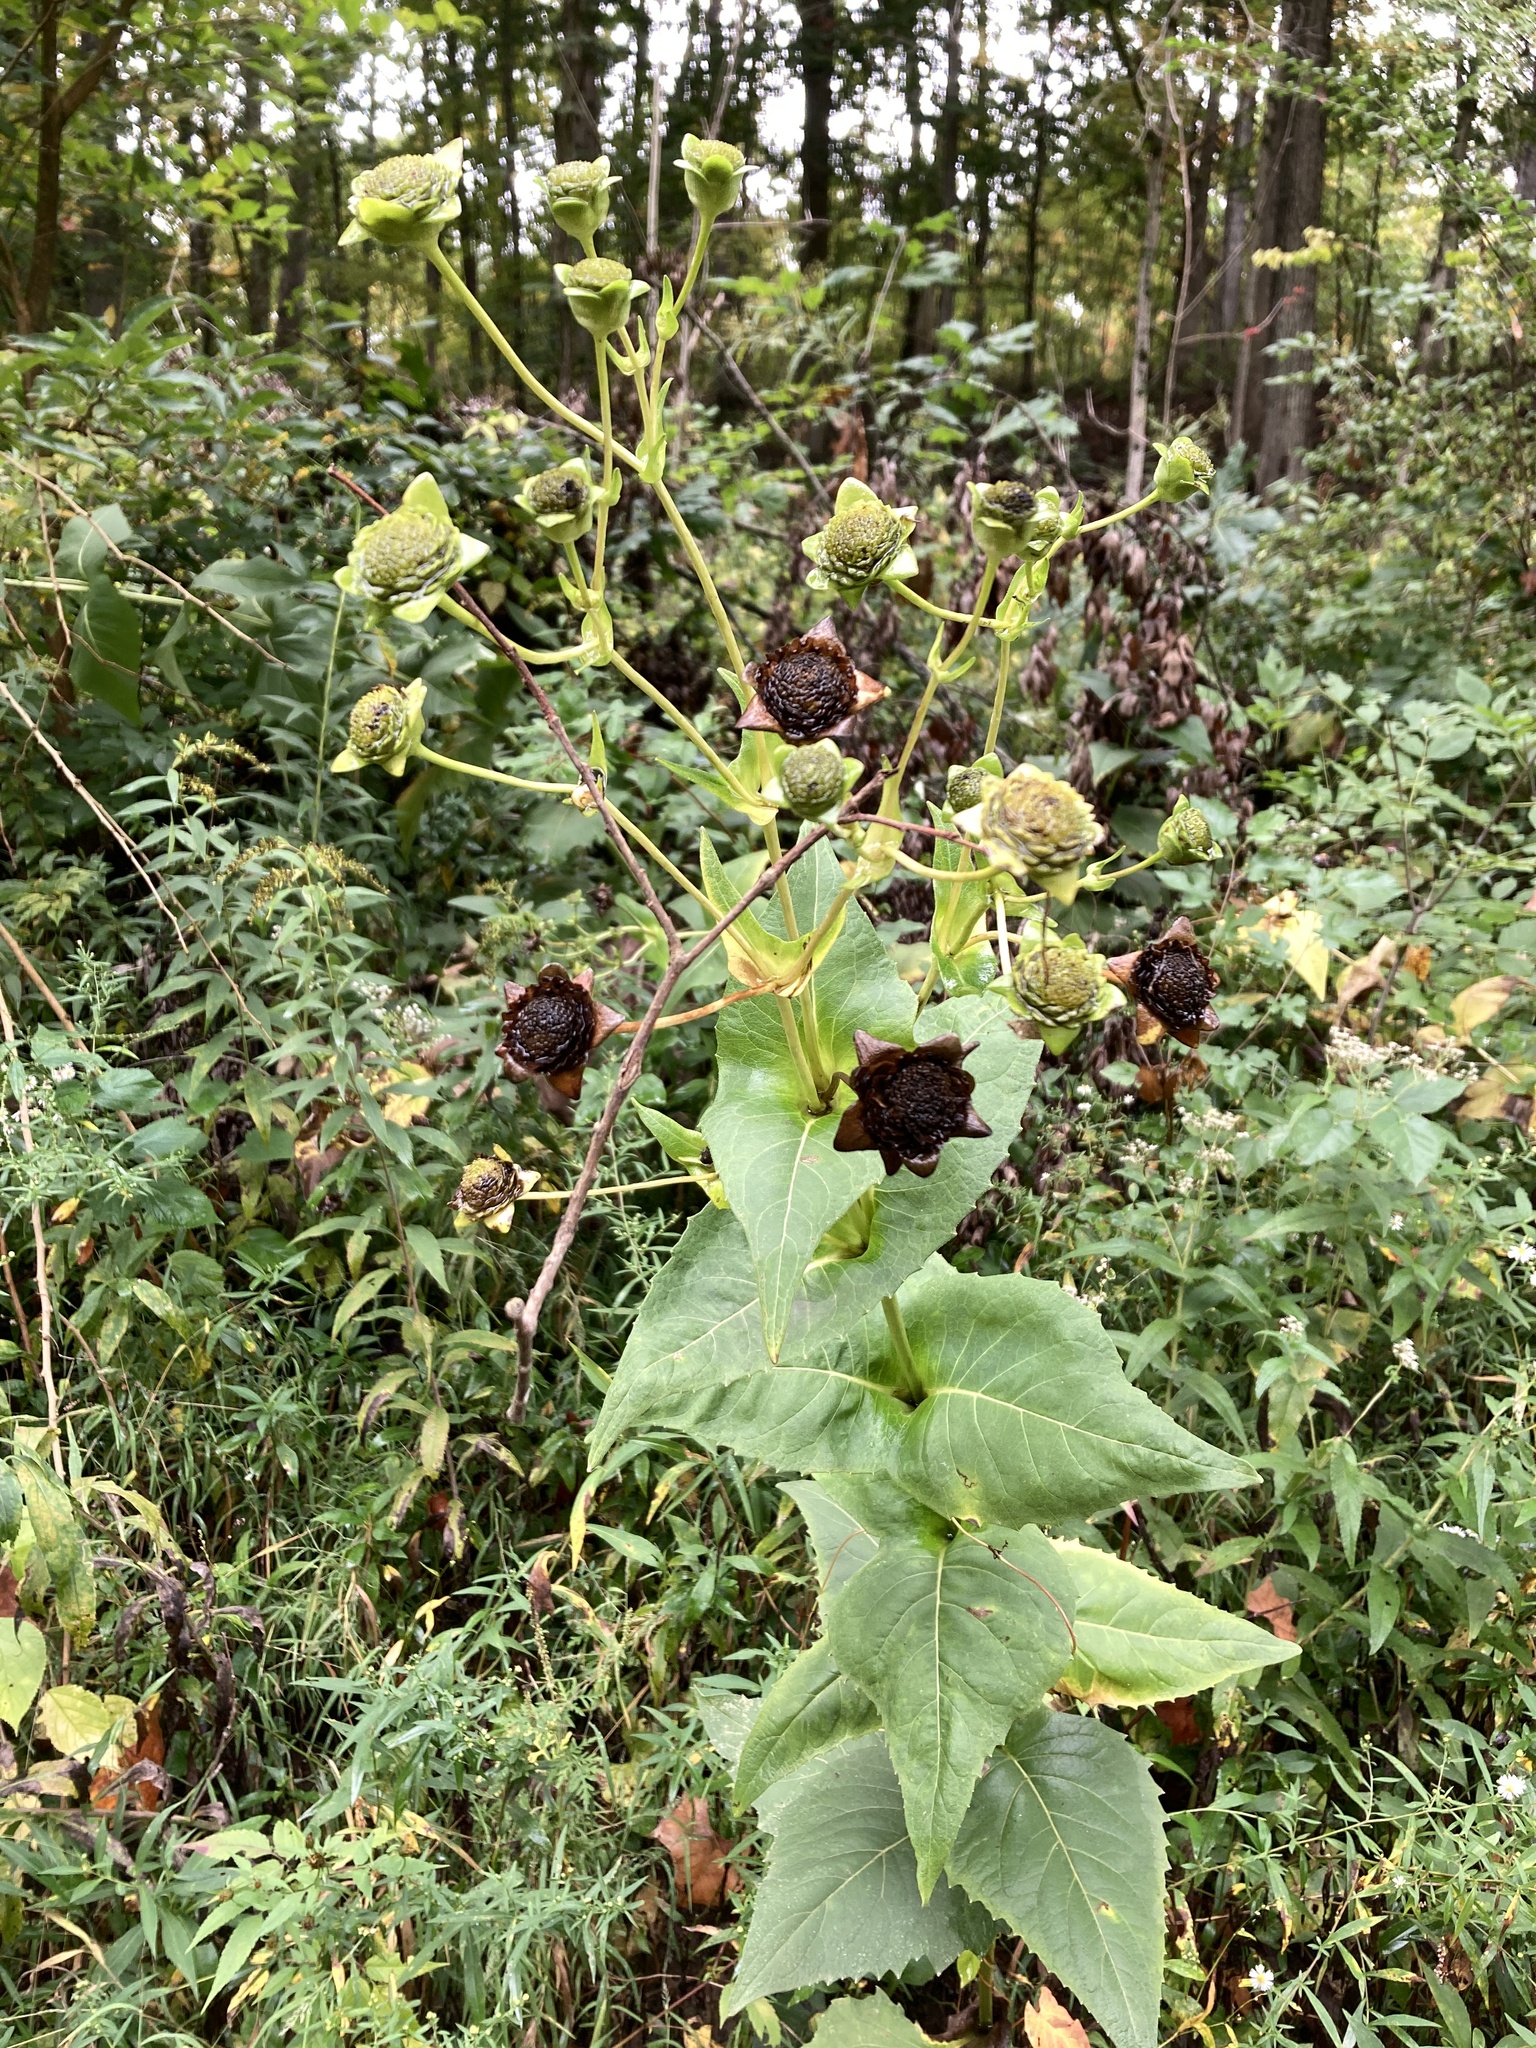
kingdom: Plantae
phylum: Tracheophyta
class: Magnoliopsida
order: Asterales
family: Asteraceae
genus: Silphium
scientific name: Silphium perfoliatum
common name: Cup-plant
